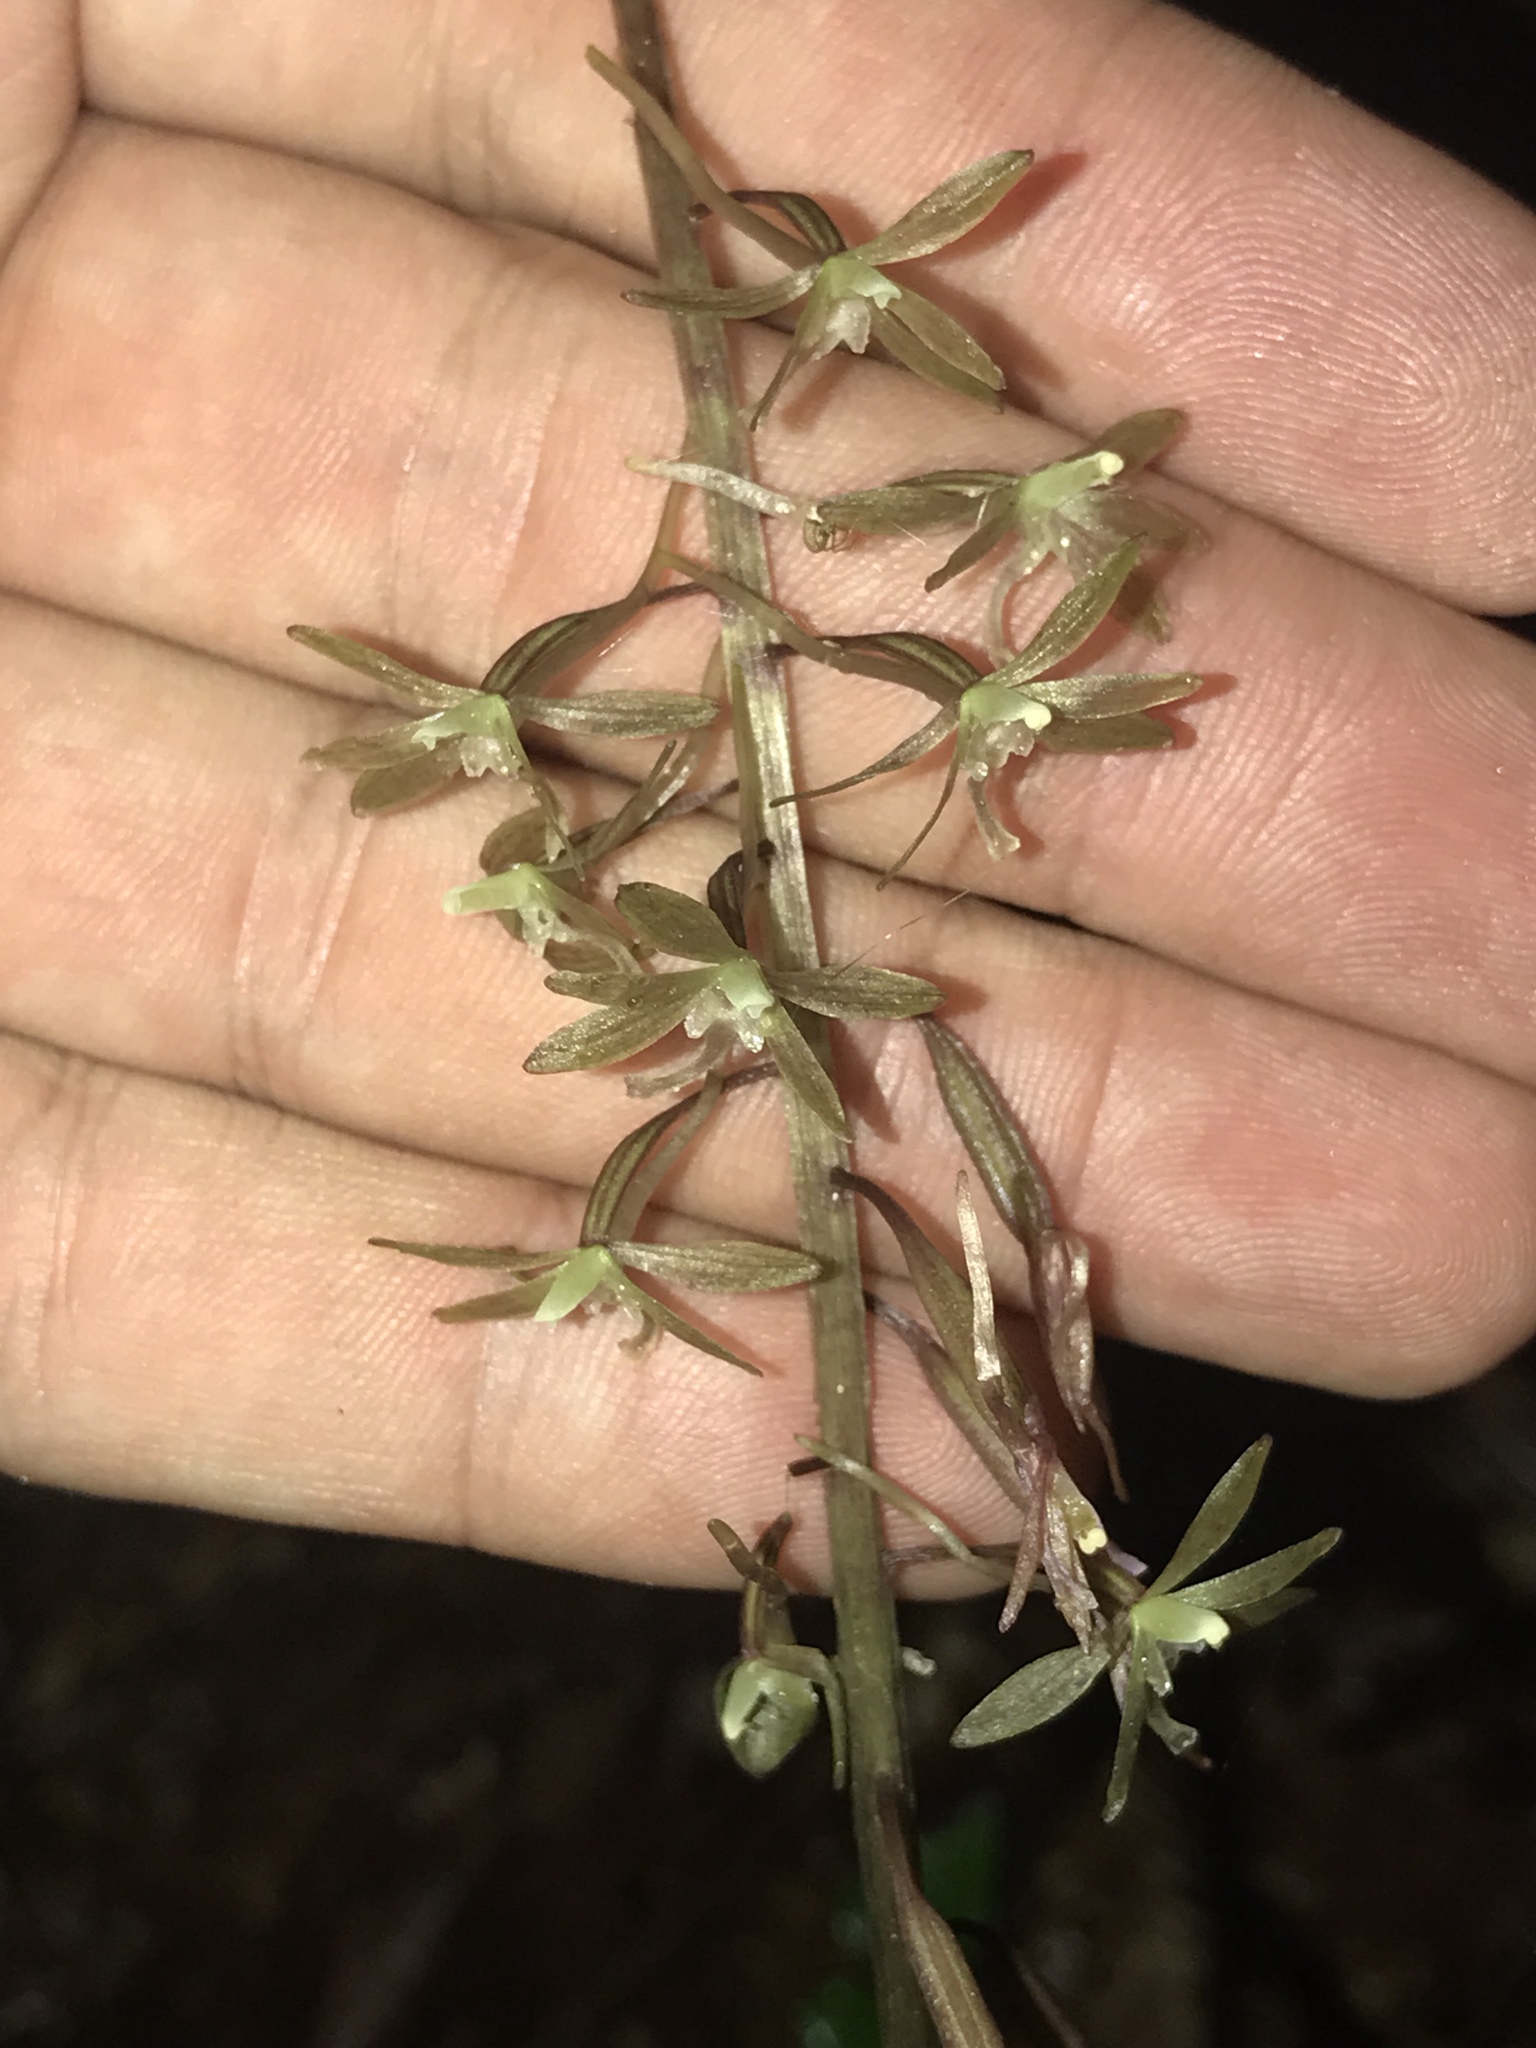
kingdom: Plantae
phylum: Tracheophyta
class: Liliopsida
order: Asparagales
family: Orchidaceae
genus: Tipularia
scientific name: Tipularia discolor
